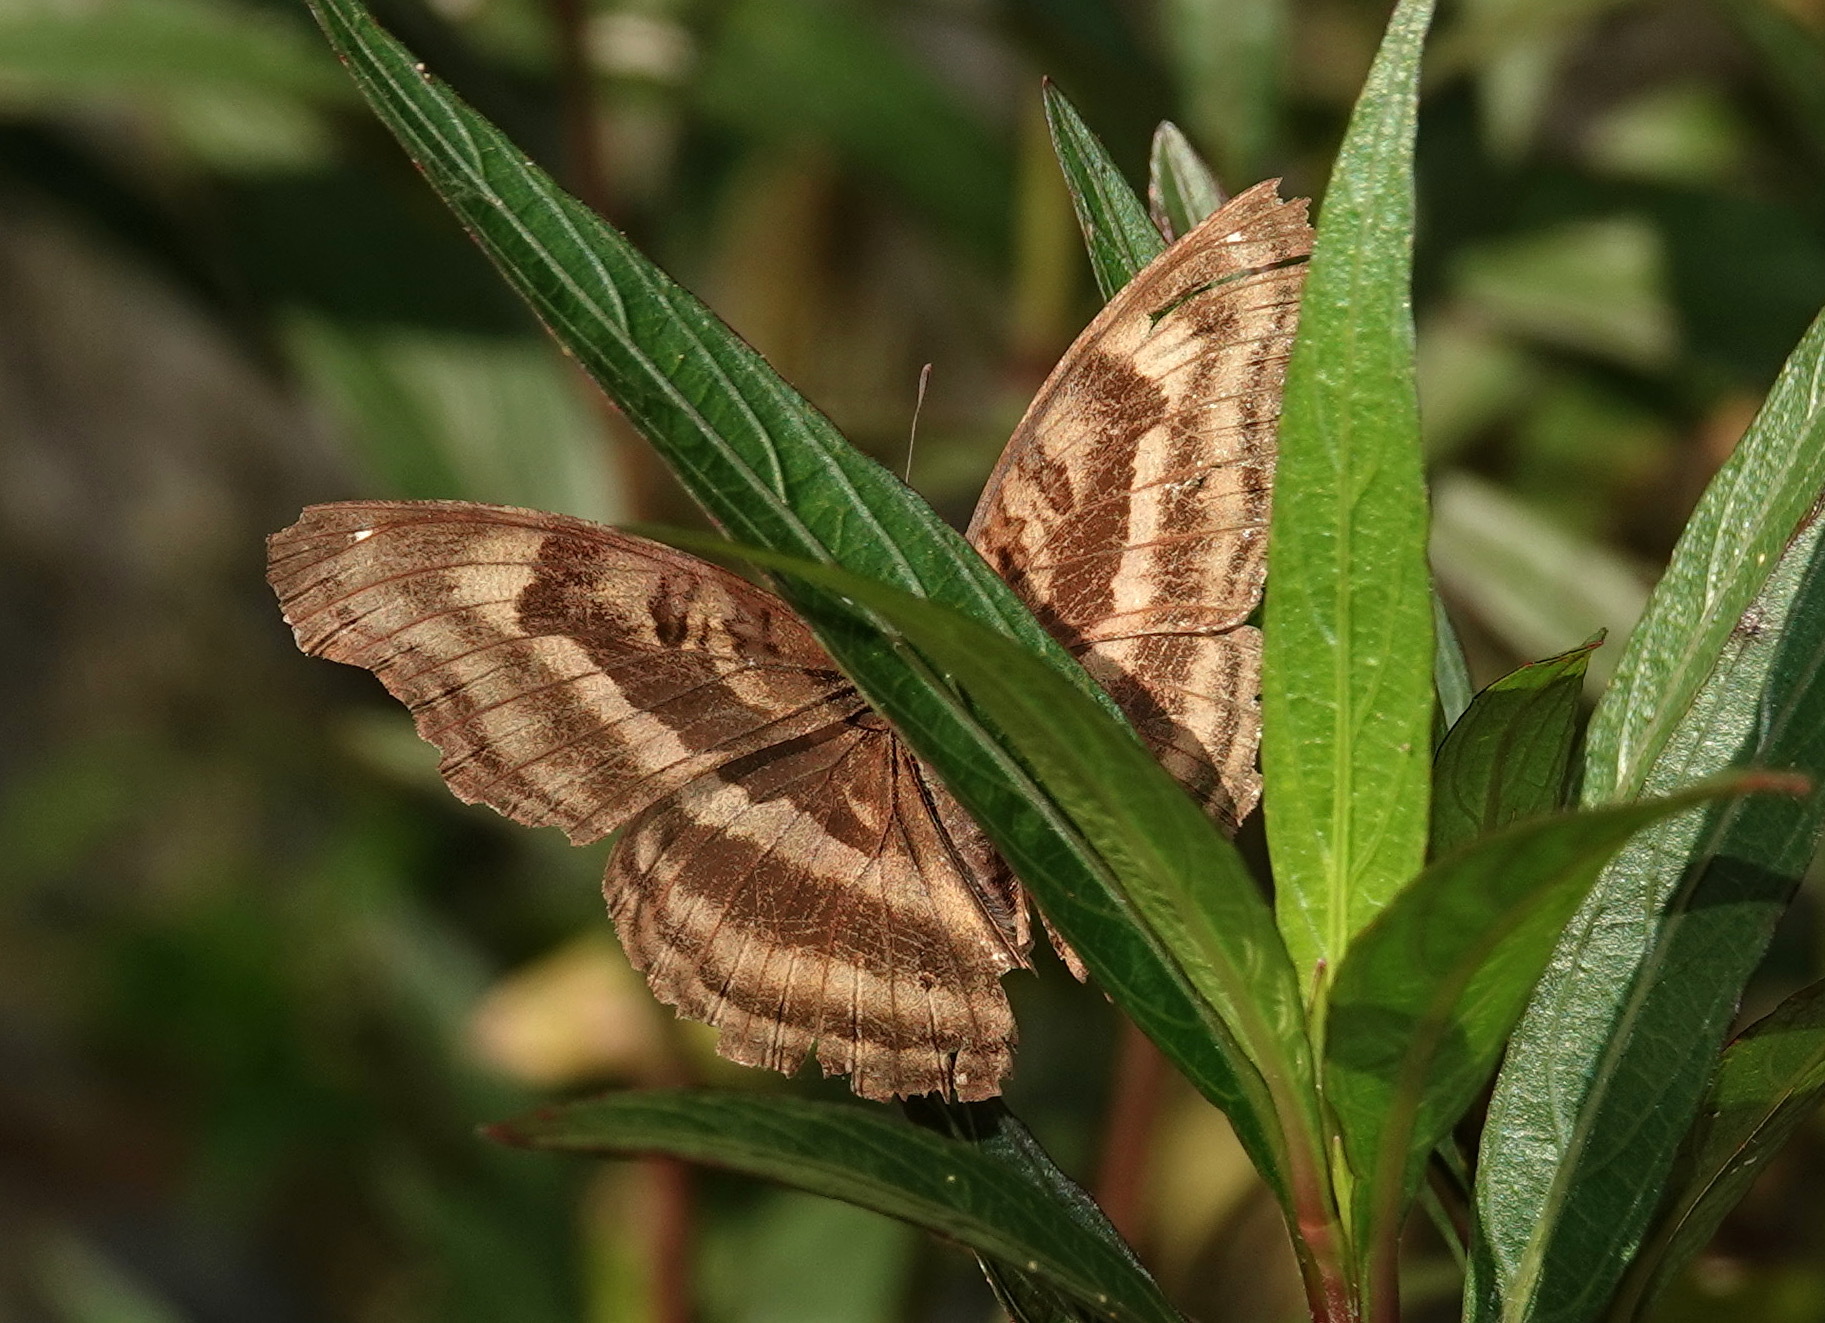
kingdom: Animalia
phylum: Arthropoda
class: Insecta
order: Lepidoptera
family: Nymphalidae
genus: Junonia
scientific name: Junonia iphita
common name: Chocolate pansy
